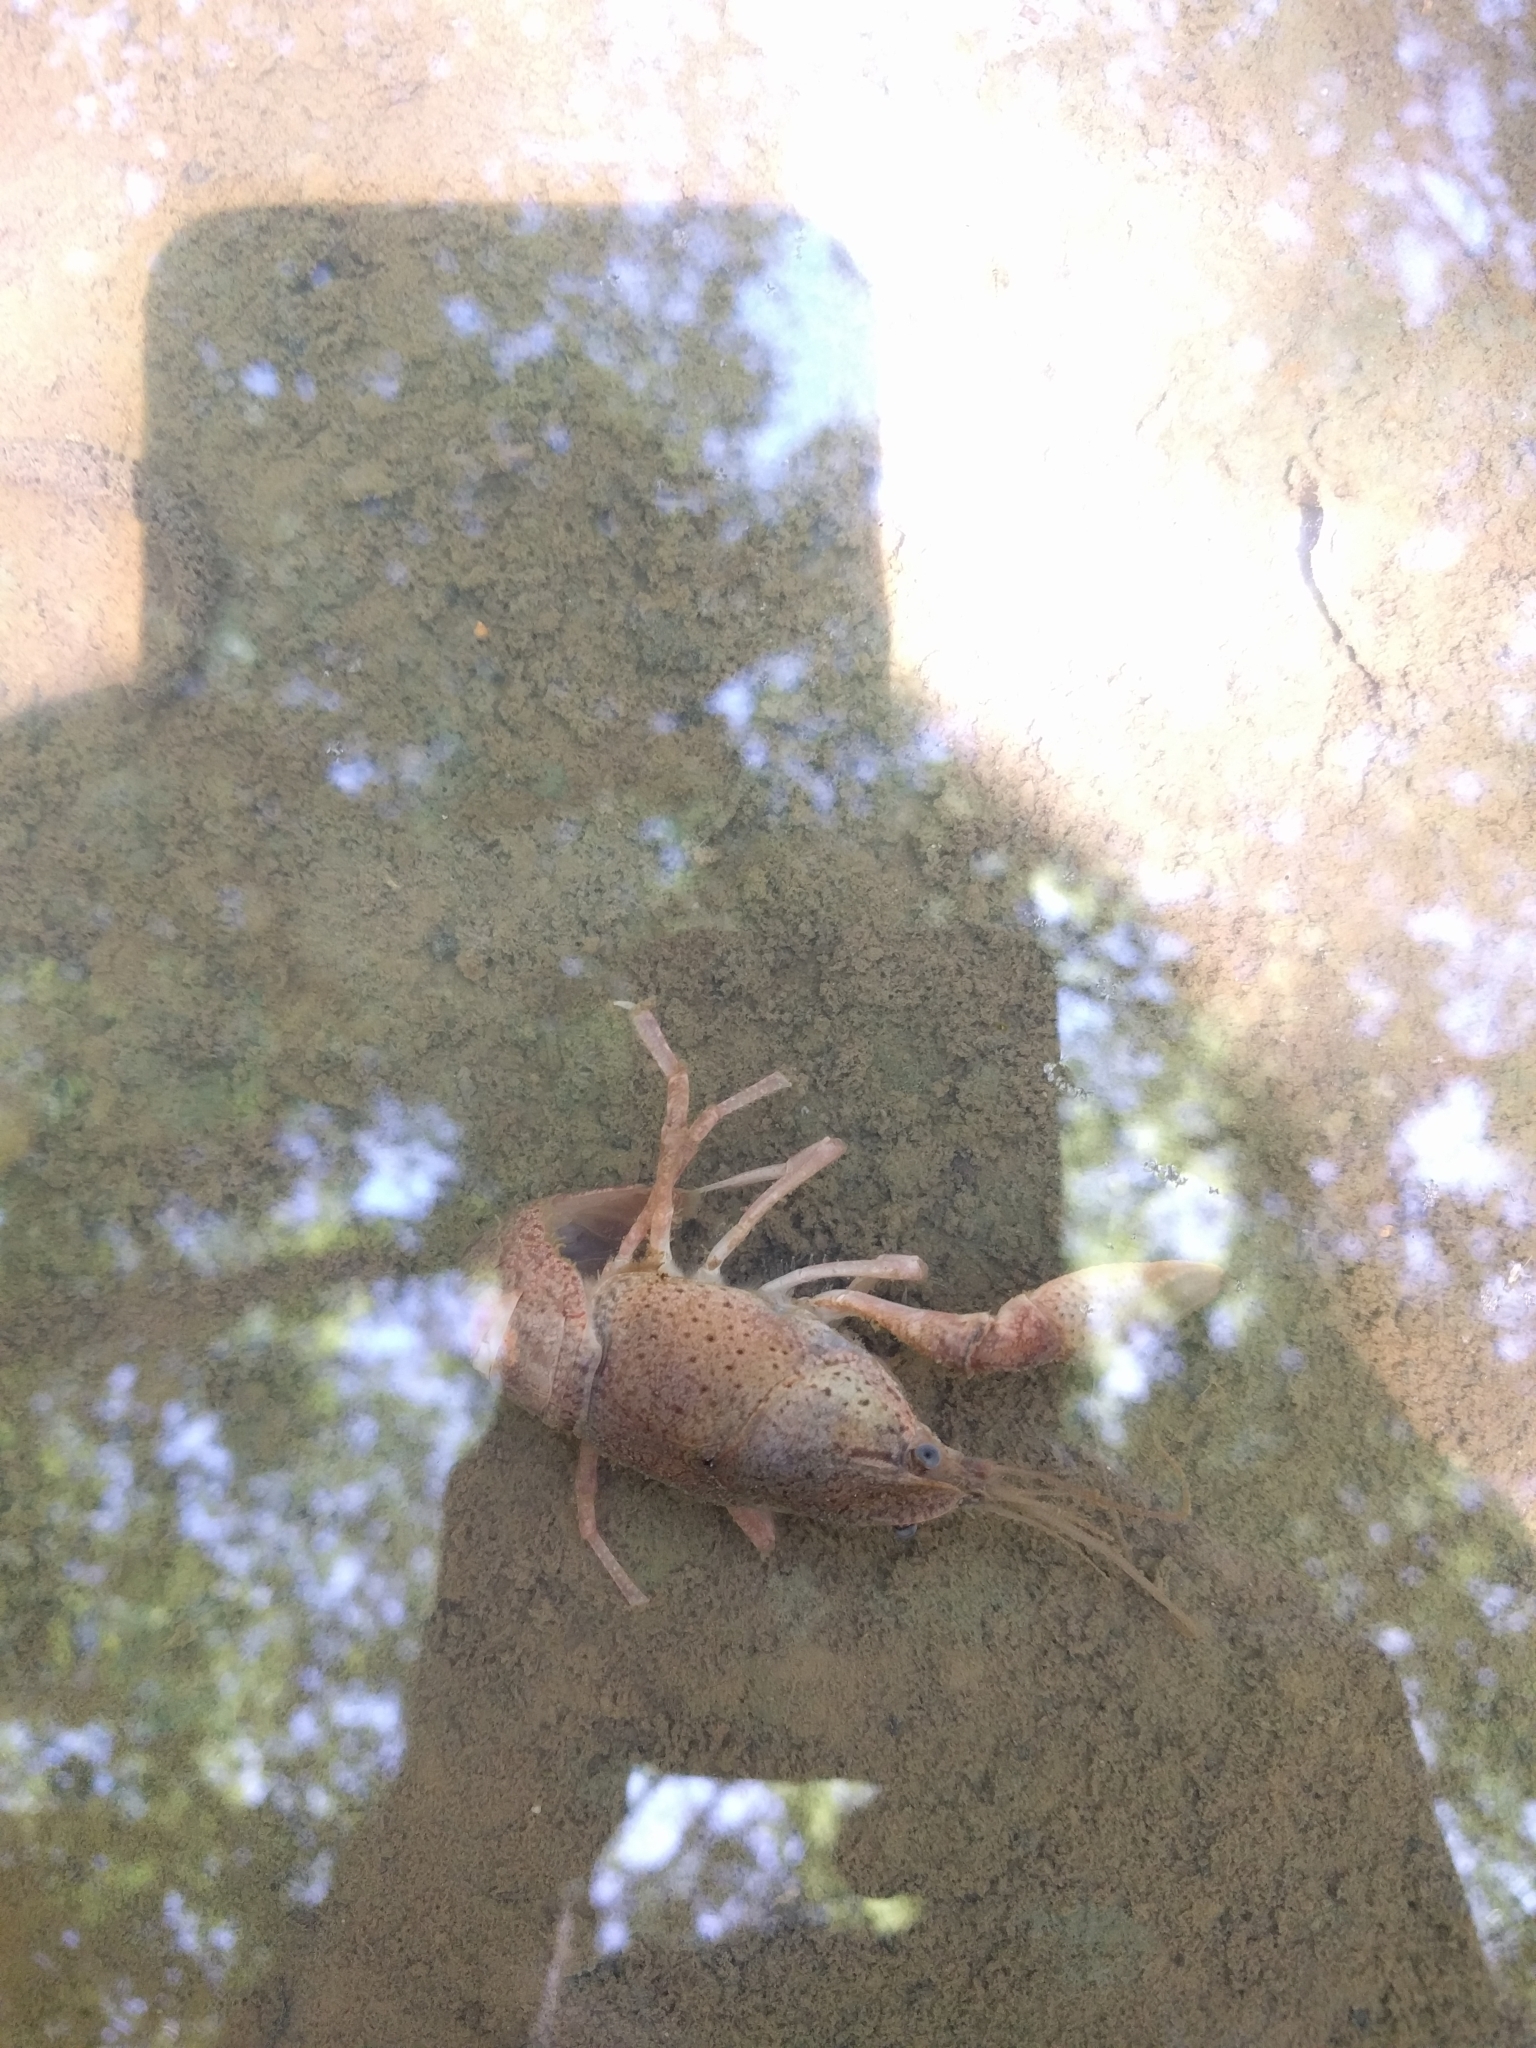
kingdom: Animalia
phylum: Arthropoda
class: Malacostraca
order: Decapoda
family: Cambaridae
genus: Procambarus
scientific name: Procambarus kensleyi
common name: Free state chimney crawfish
